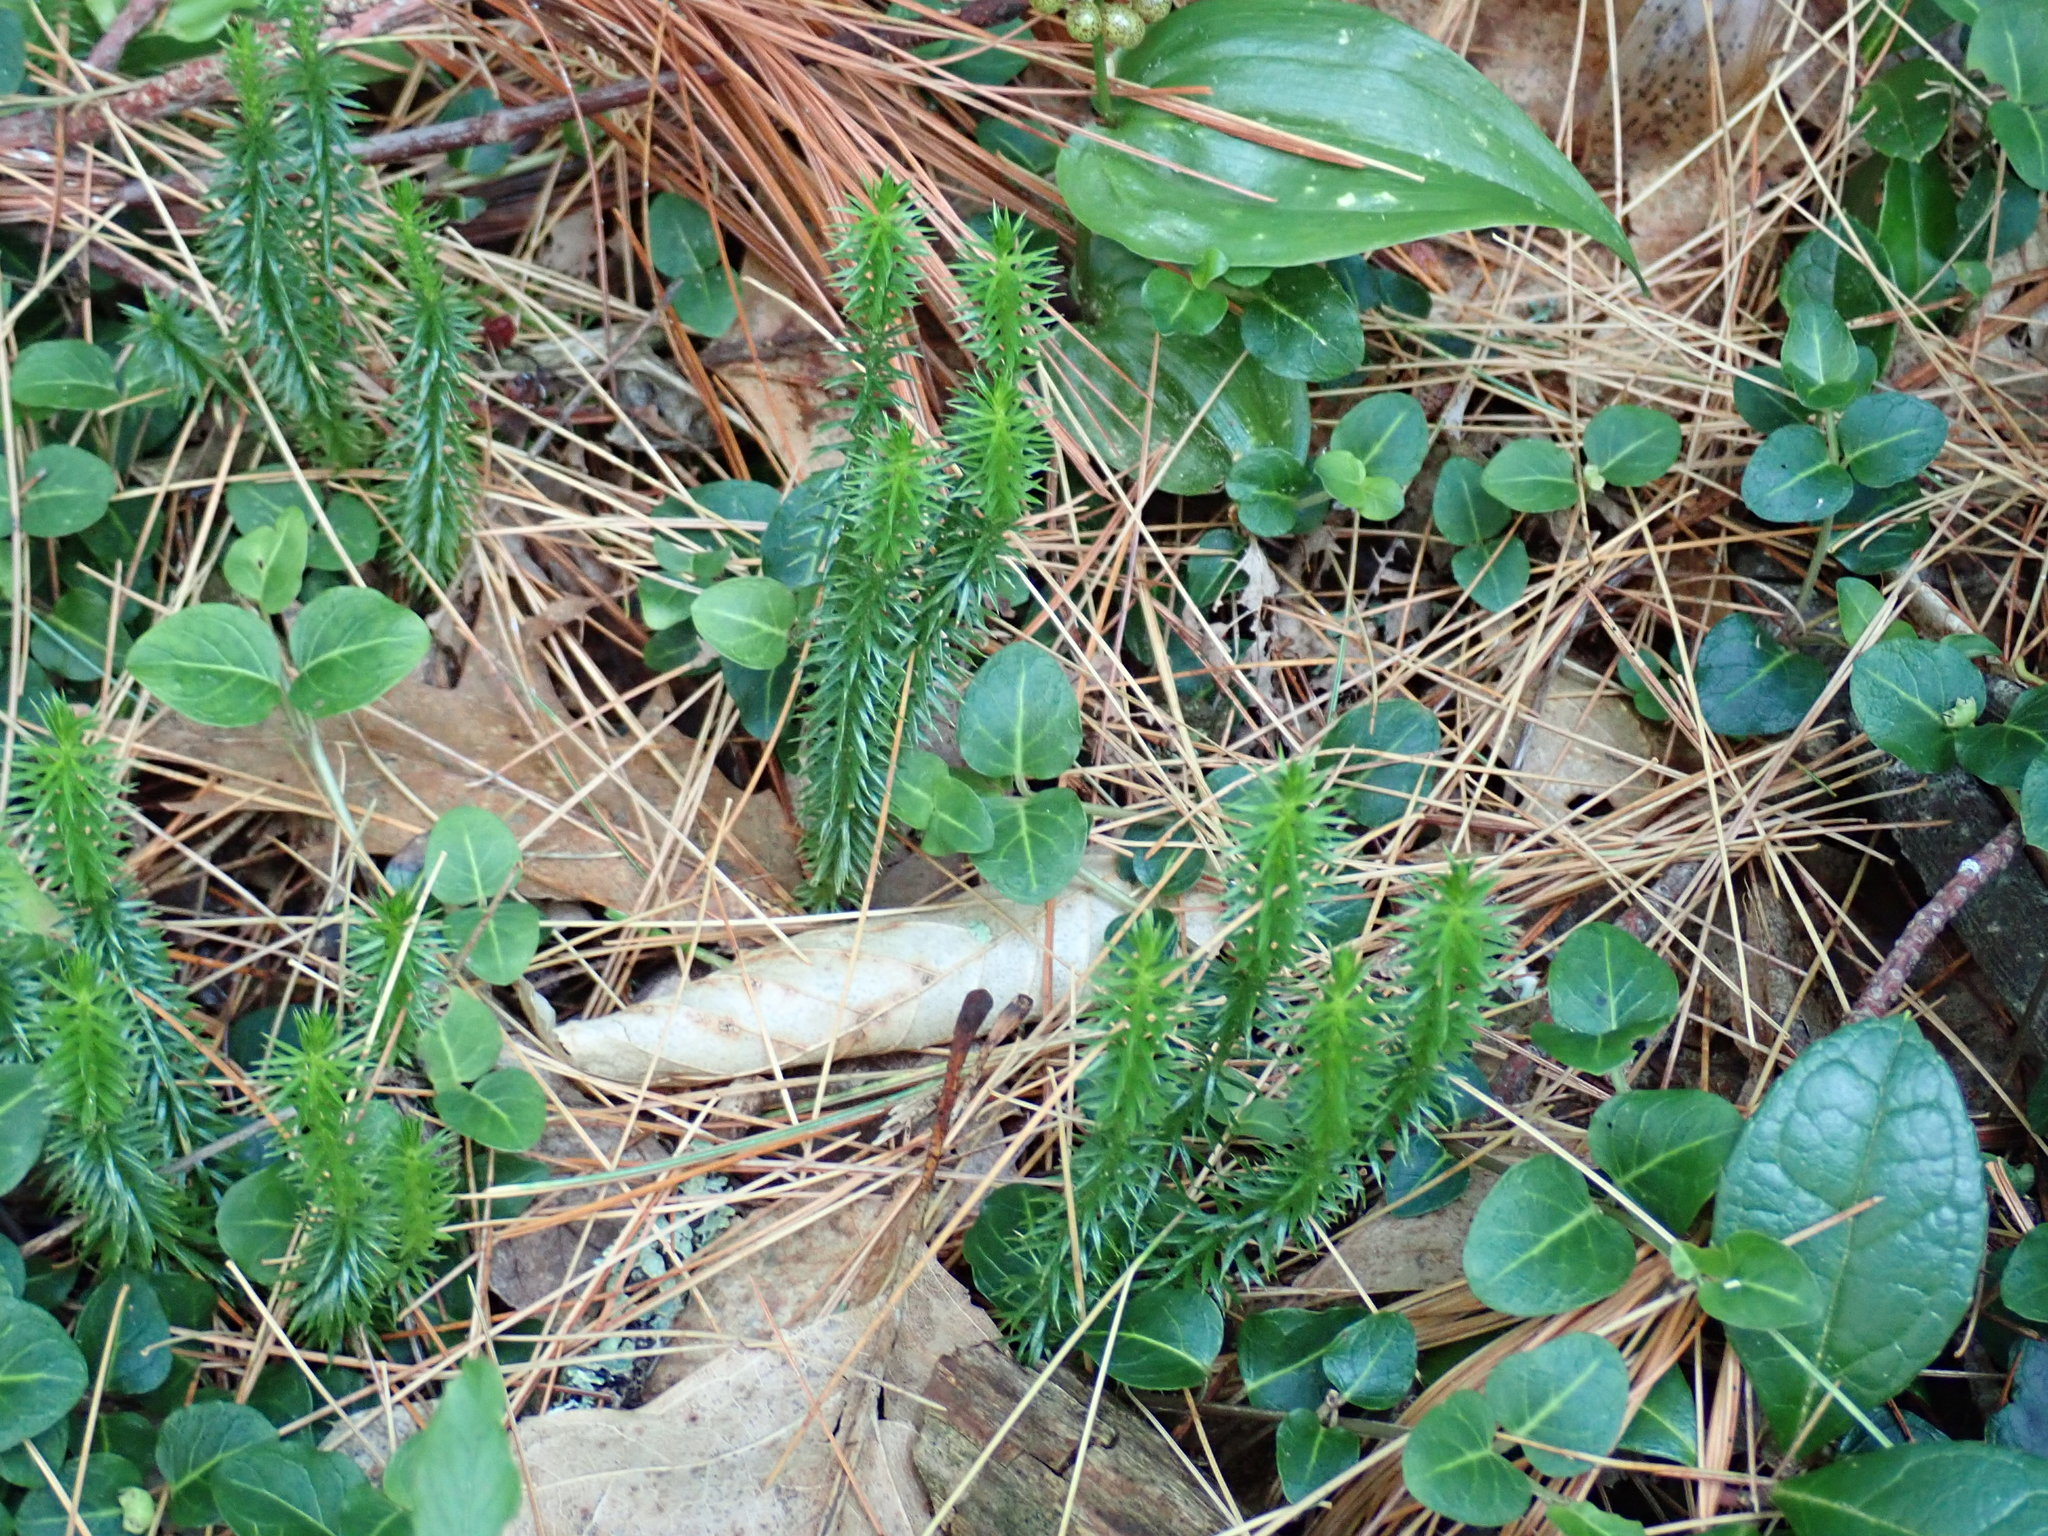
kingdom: Plantae
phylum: Tracheophyta
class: Lycopodiopsida
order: Lycopodiales
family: Lycopodiaceae
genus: Spinulum
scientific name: Spinulum annotinum
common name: Interrupted club-moss
